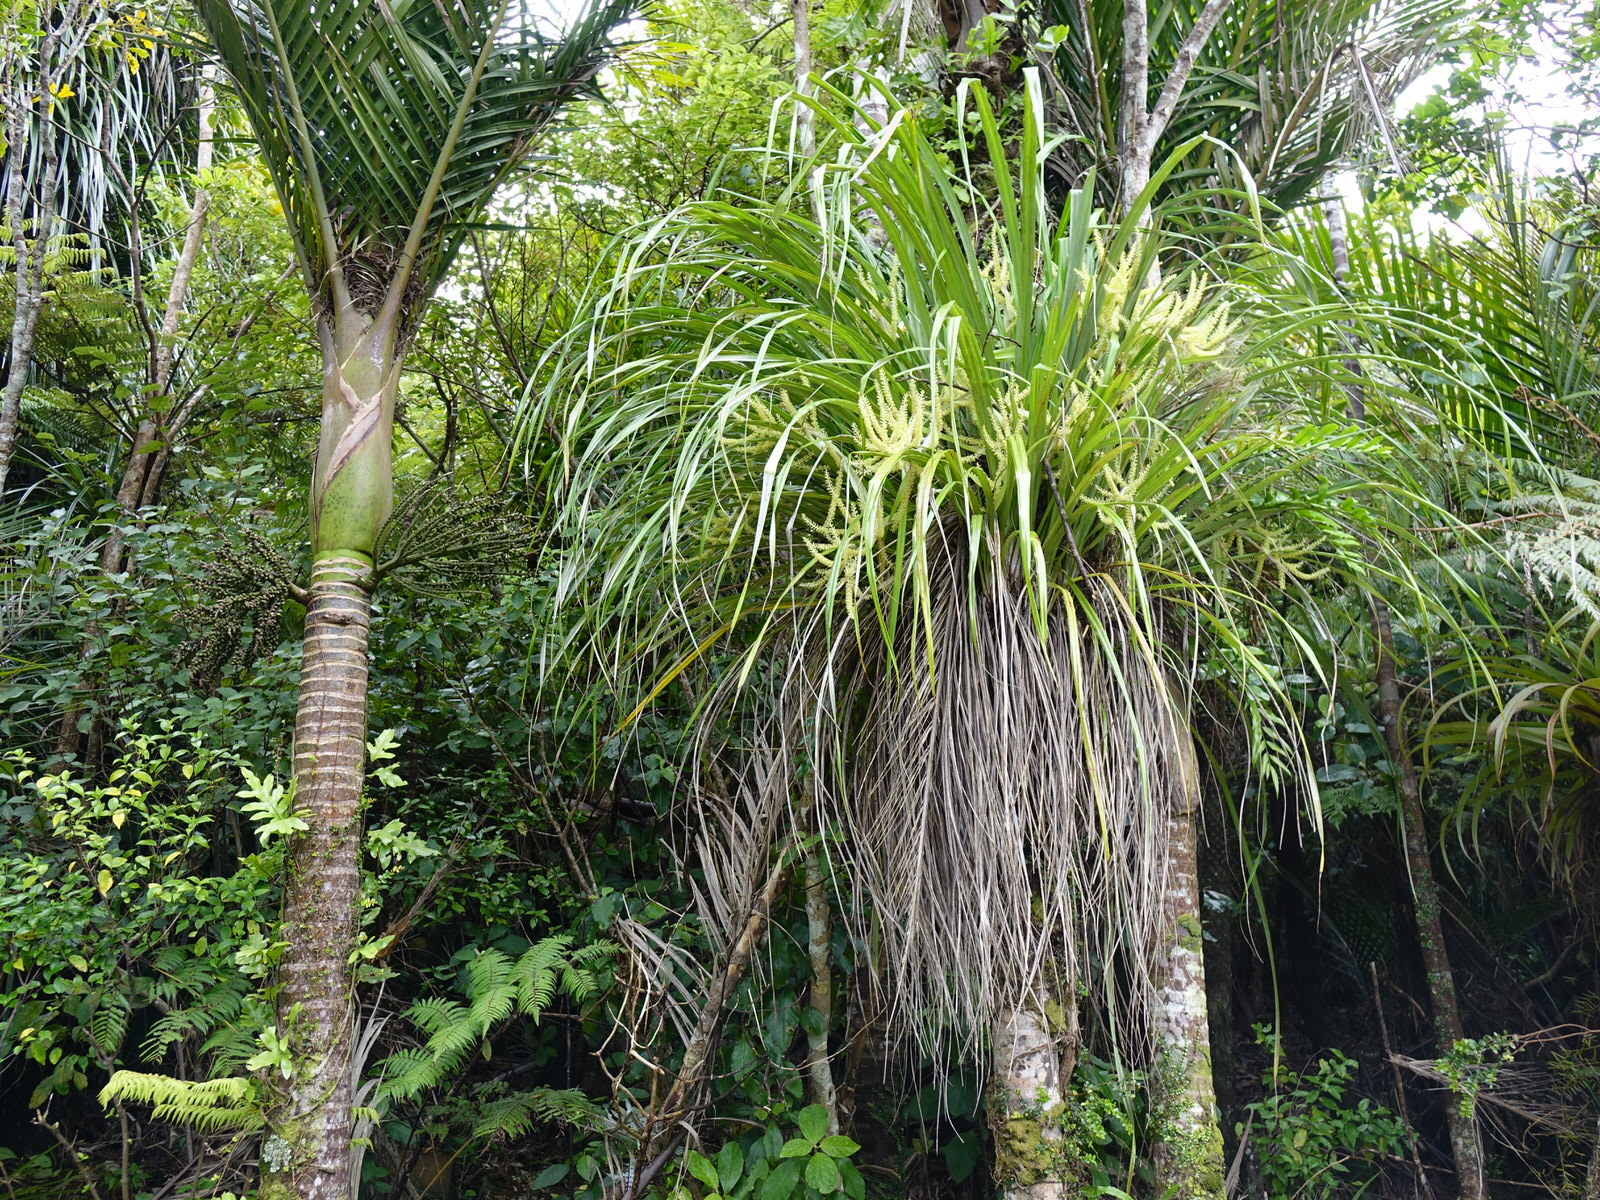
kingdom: Plantae
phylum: Tracheophyta
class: Liliopsida
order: Asparagales
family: Asteliaceae
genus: Astelia
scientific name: Astelia solandri
